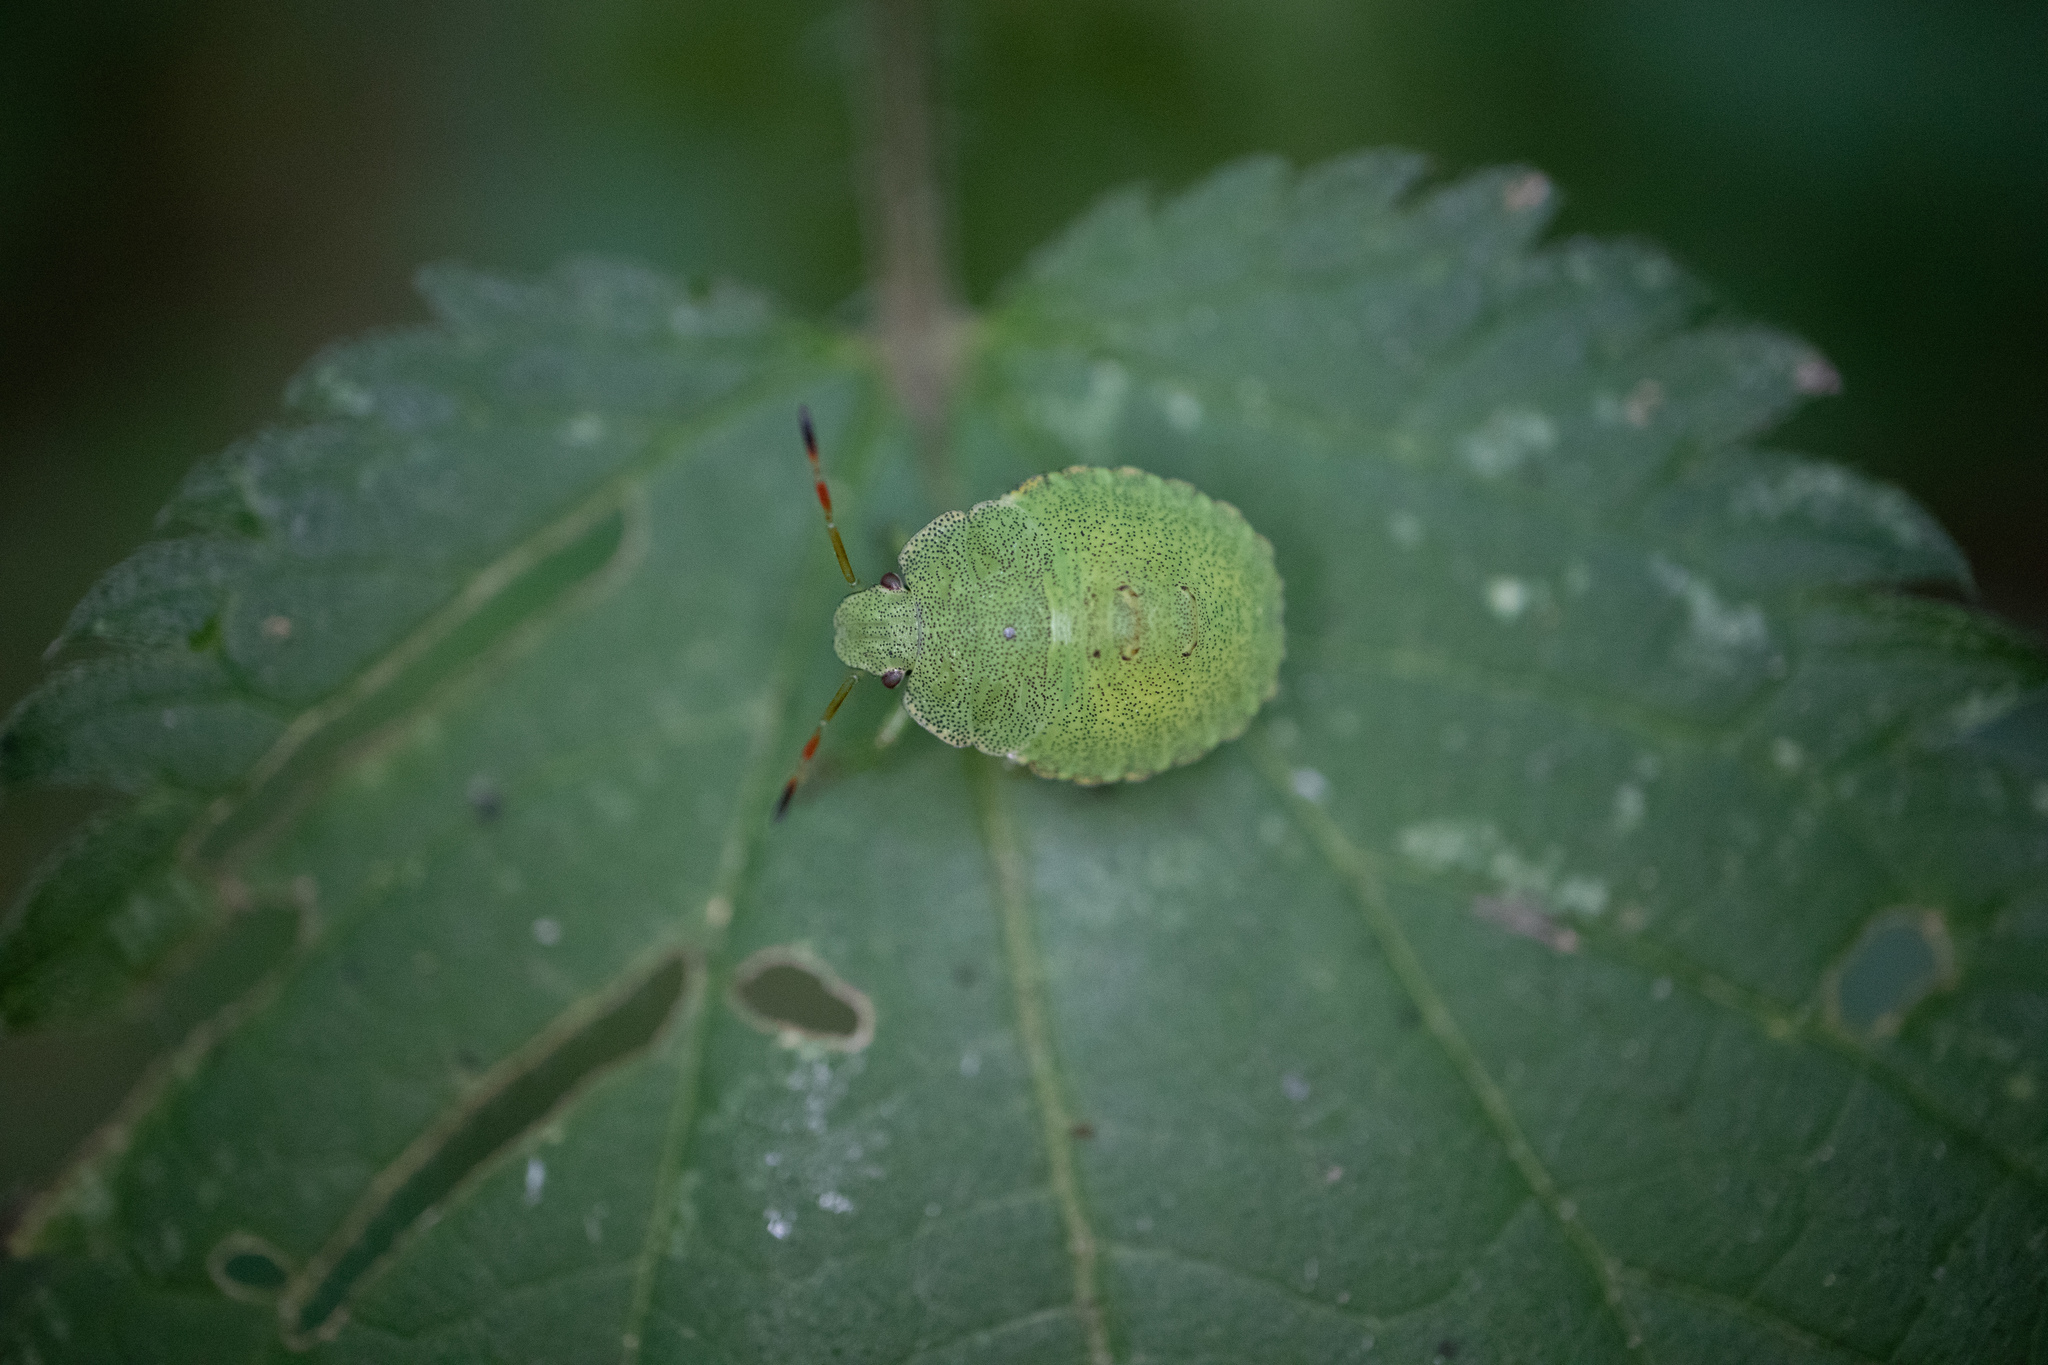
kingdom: Animalia
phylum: Arthropoda
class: Insecta
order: Hemiptera
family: Pentatomidae
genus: Palomena
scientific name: Palomena prasina
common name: Green shieldbug
